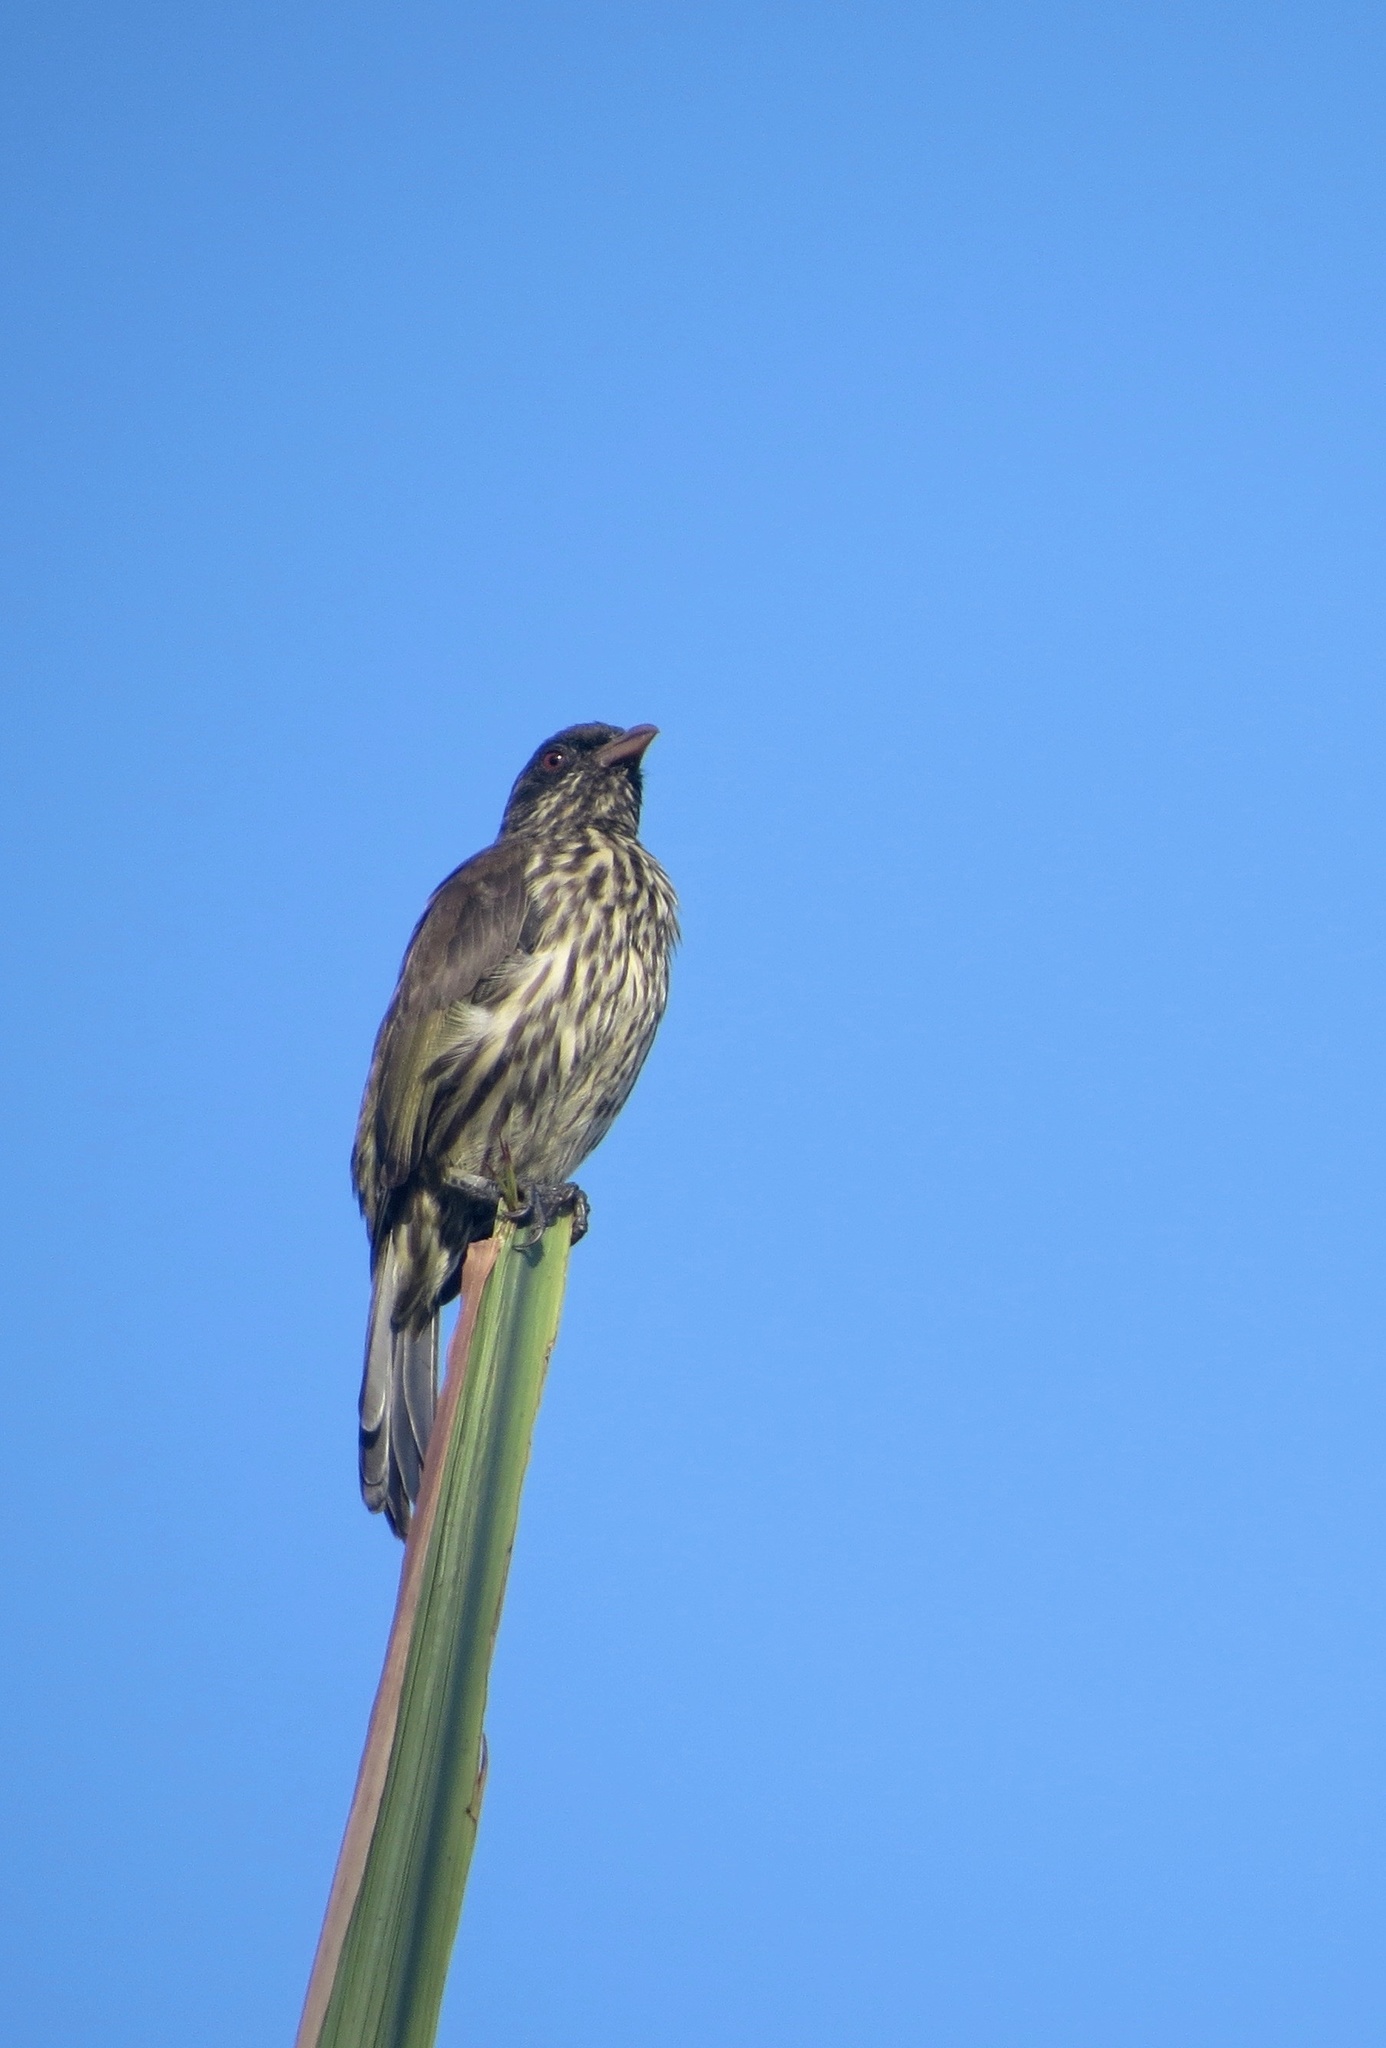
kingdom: Animalia
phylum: Chordata
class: Aves
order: Passeriformes
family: Dulidae
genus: Dulus
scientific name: Dulus dominicus
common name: Palmchat
